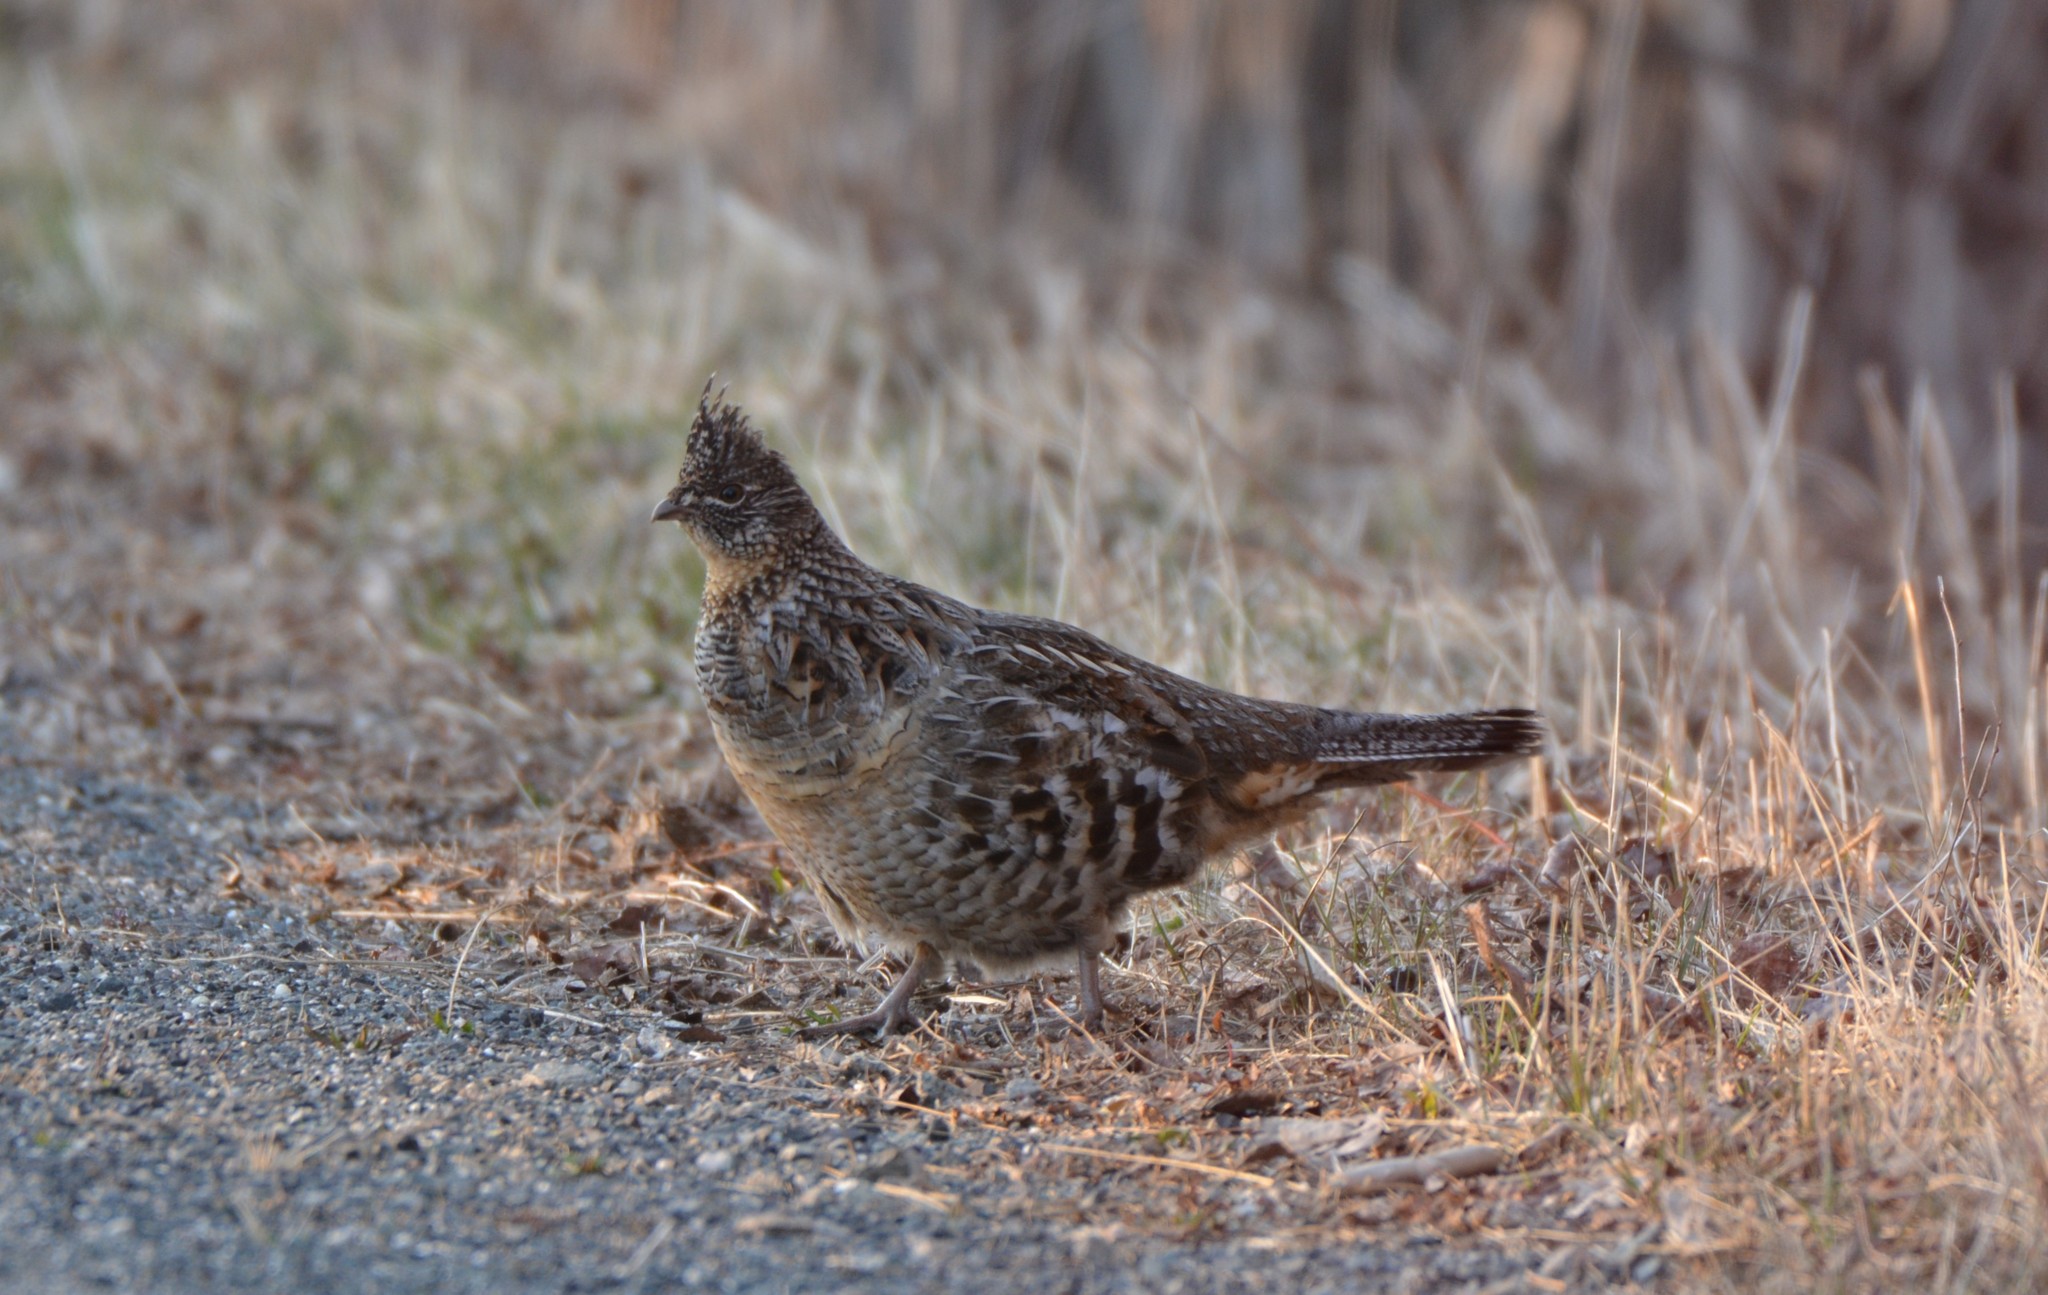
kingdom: Animalia
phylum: Chordata
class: Aves
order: Galliformes
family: Phasianidae
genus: Bonasa
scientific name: Bonasa umbellus
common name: Ruffed grouse
